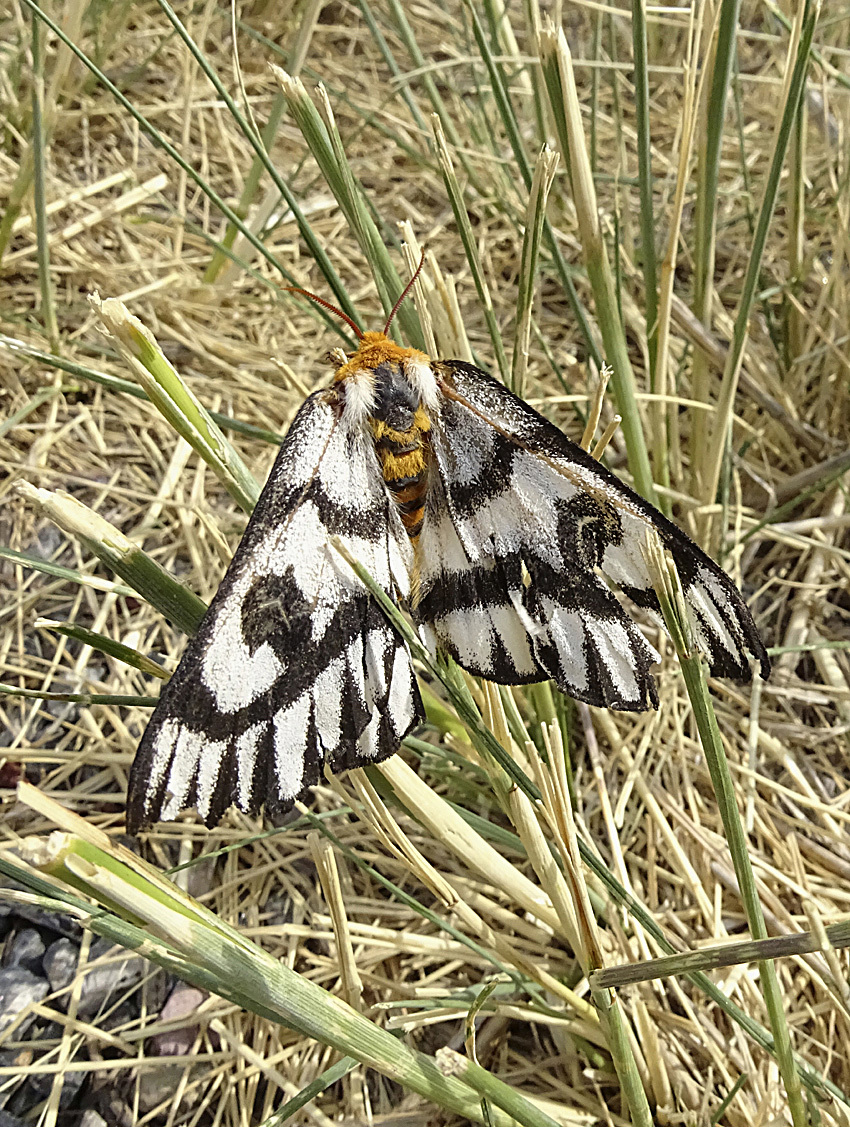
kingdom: Animalia
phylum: Arthropoda
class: Insecta
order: Lepidoptera
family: Saturniidae
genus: Hemileuca
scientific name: Hemileuca hera
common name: Hera sheepmoth
